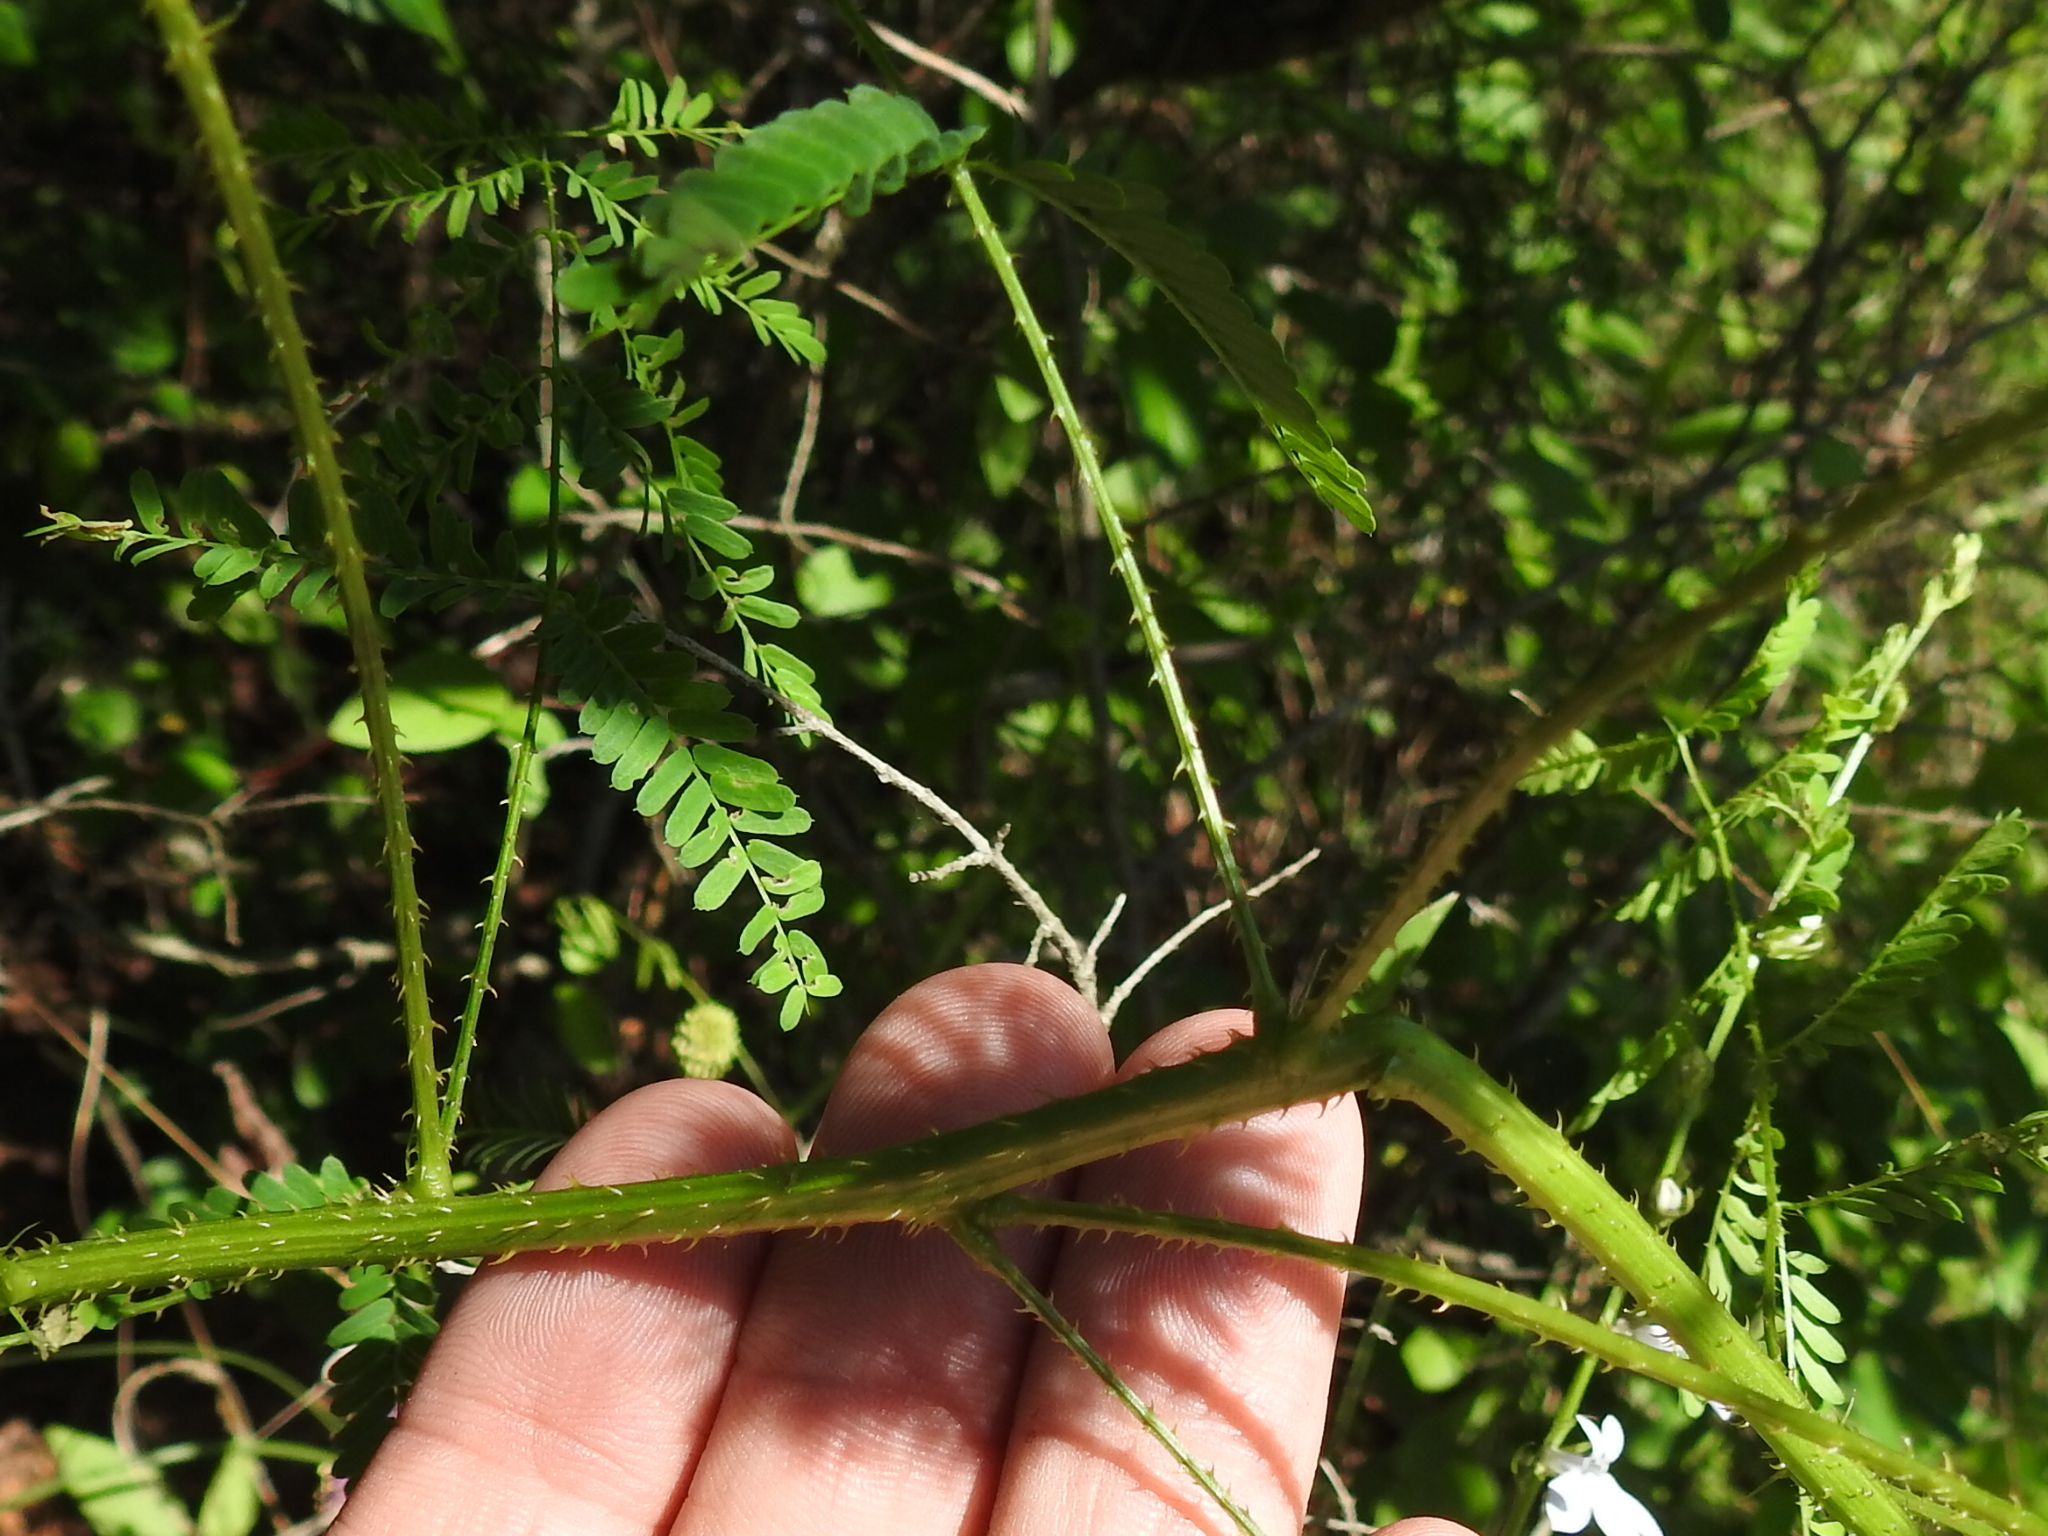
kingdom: Plantae
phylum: Tracheophyta
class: Magnoliopsida
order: Fabales
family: Fabaceae
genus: Mimosa
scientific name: Mimosa quadrivalvis
